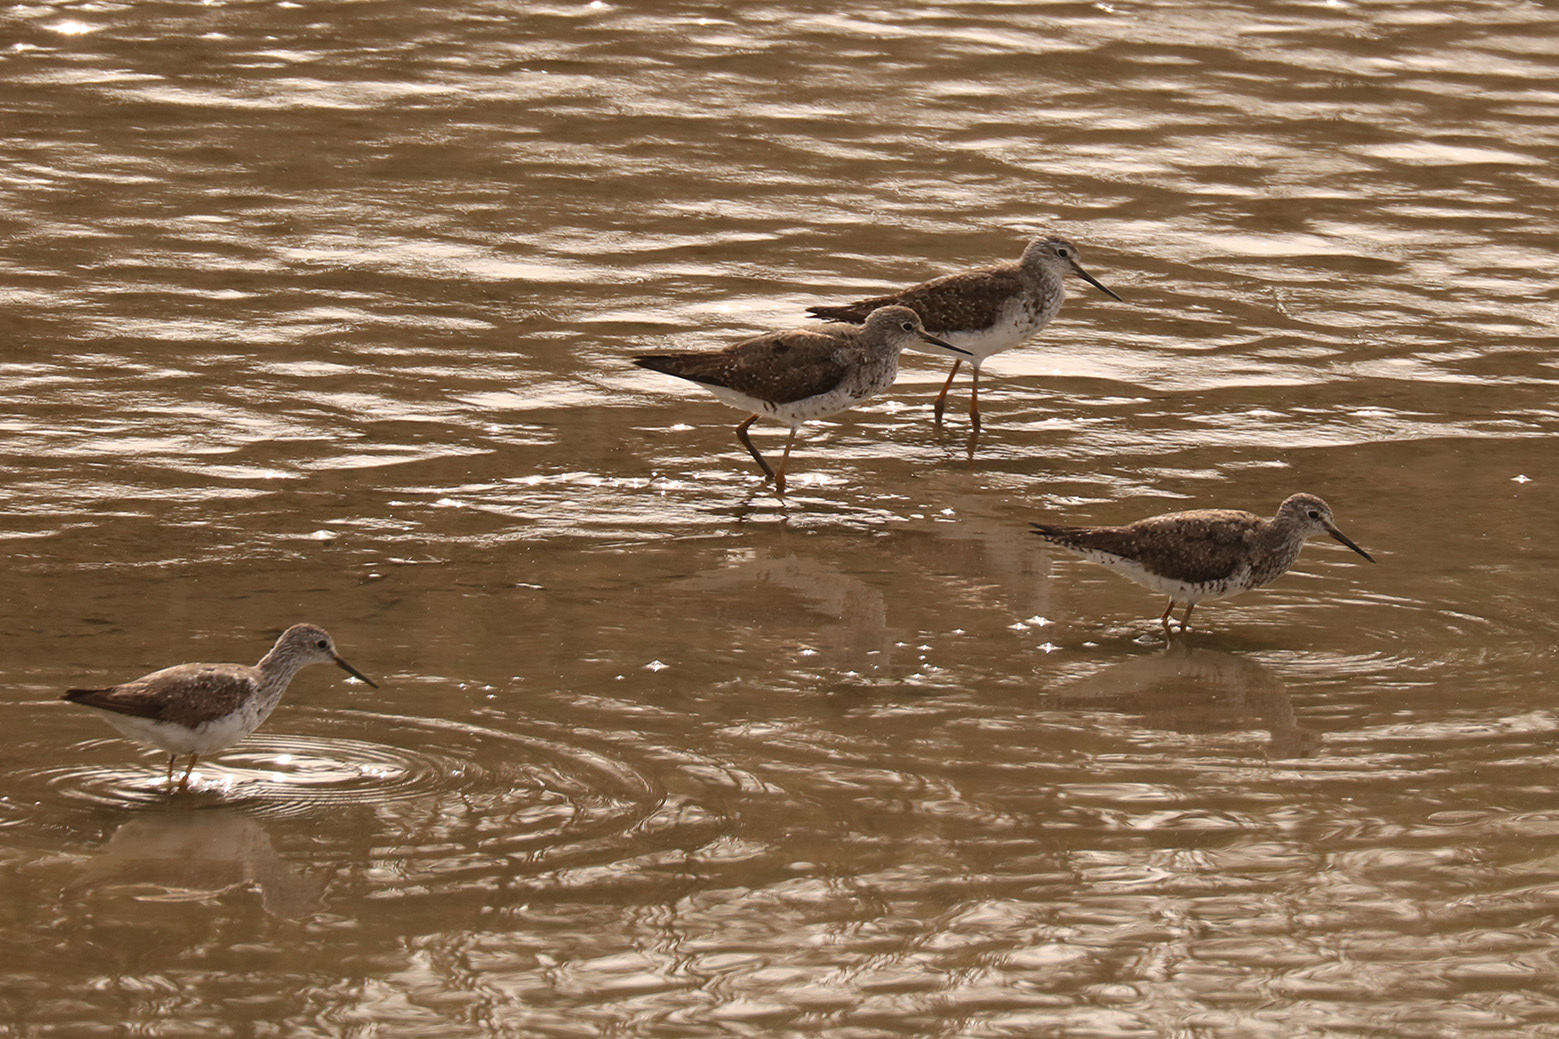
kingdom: Animalia
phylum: Chordata
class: Aves
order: Charadriiformes
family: Scolopacidae
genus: Tringa
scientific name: Tringa flavipes
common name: Lesser yellowlegs
